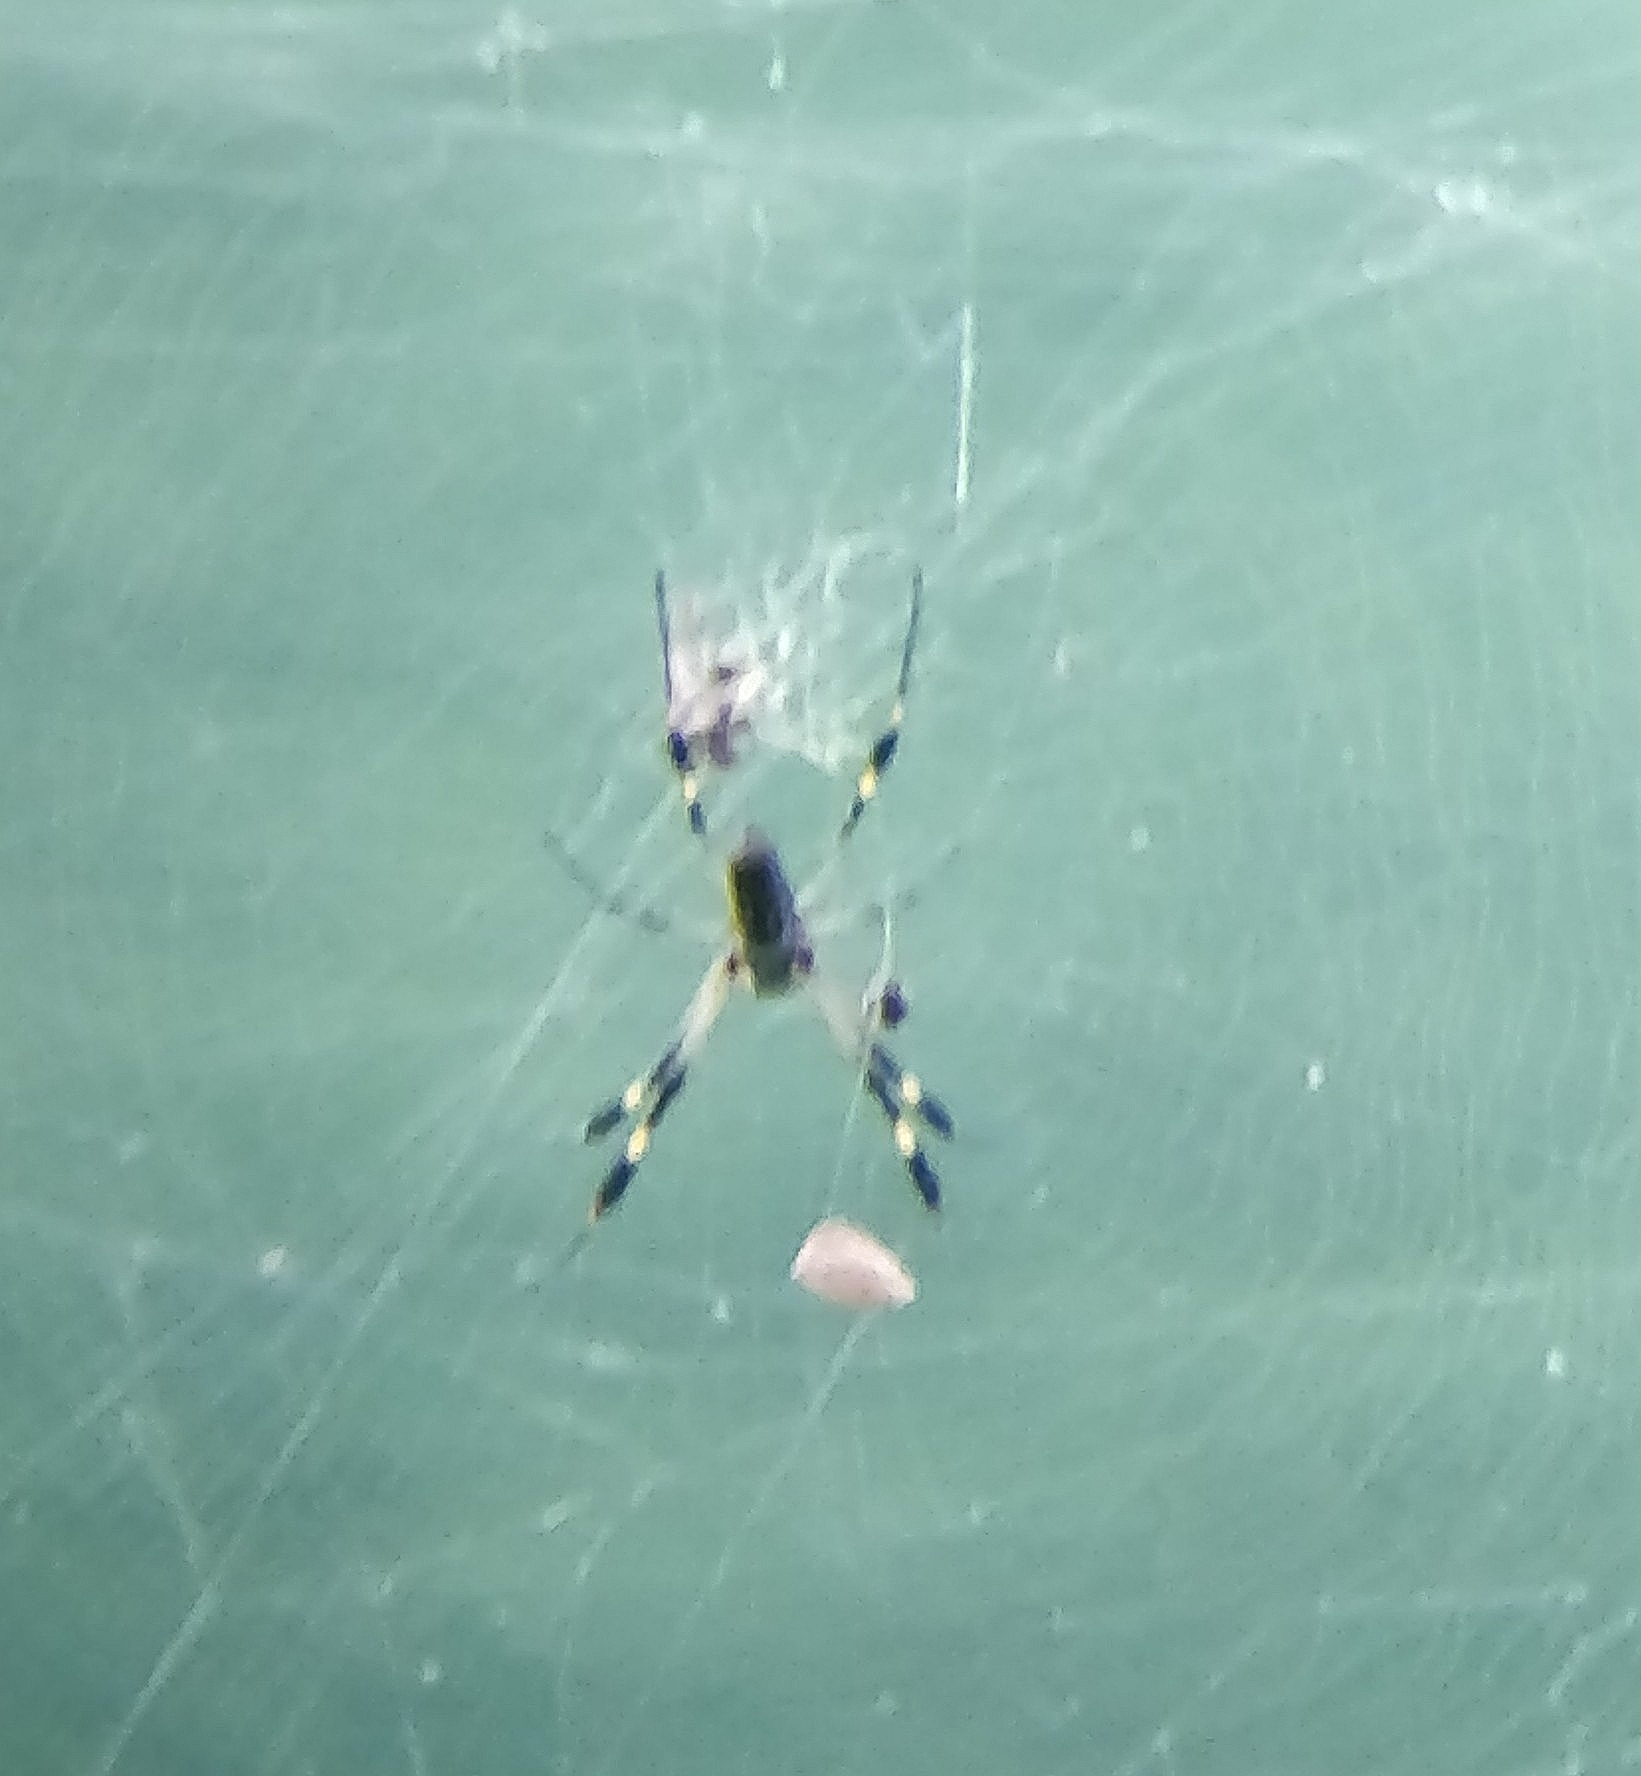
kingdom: Animalia
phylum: Arthropoda
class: Arachnida
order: Araneae
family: Araneidae
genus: Trichonephila
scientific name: Trichonephila clavipes
